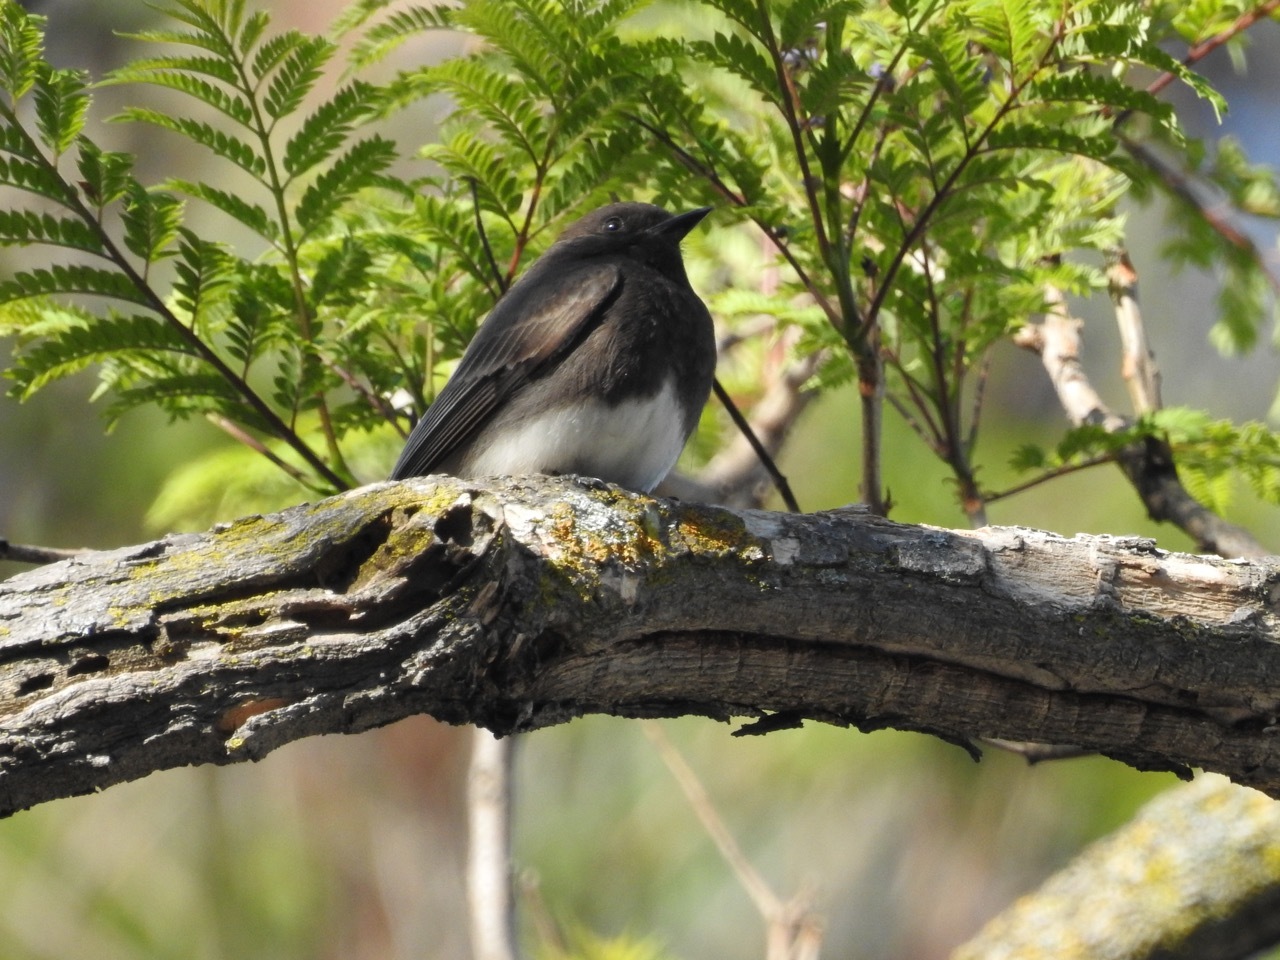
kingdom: Animalia
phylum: Chordata
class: Aves
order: Passeriformes
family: Tyrannidae
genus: Sayornis
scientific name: Sayornis nigricans
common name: Black phoebe
